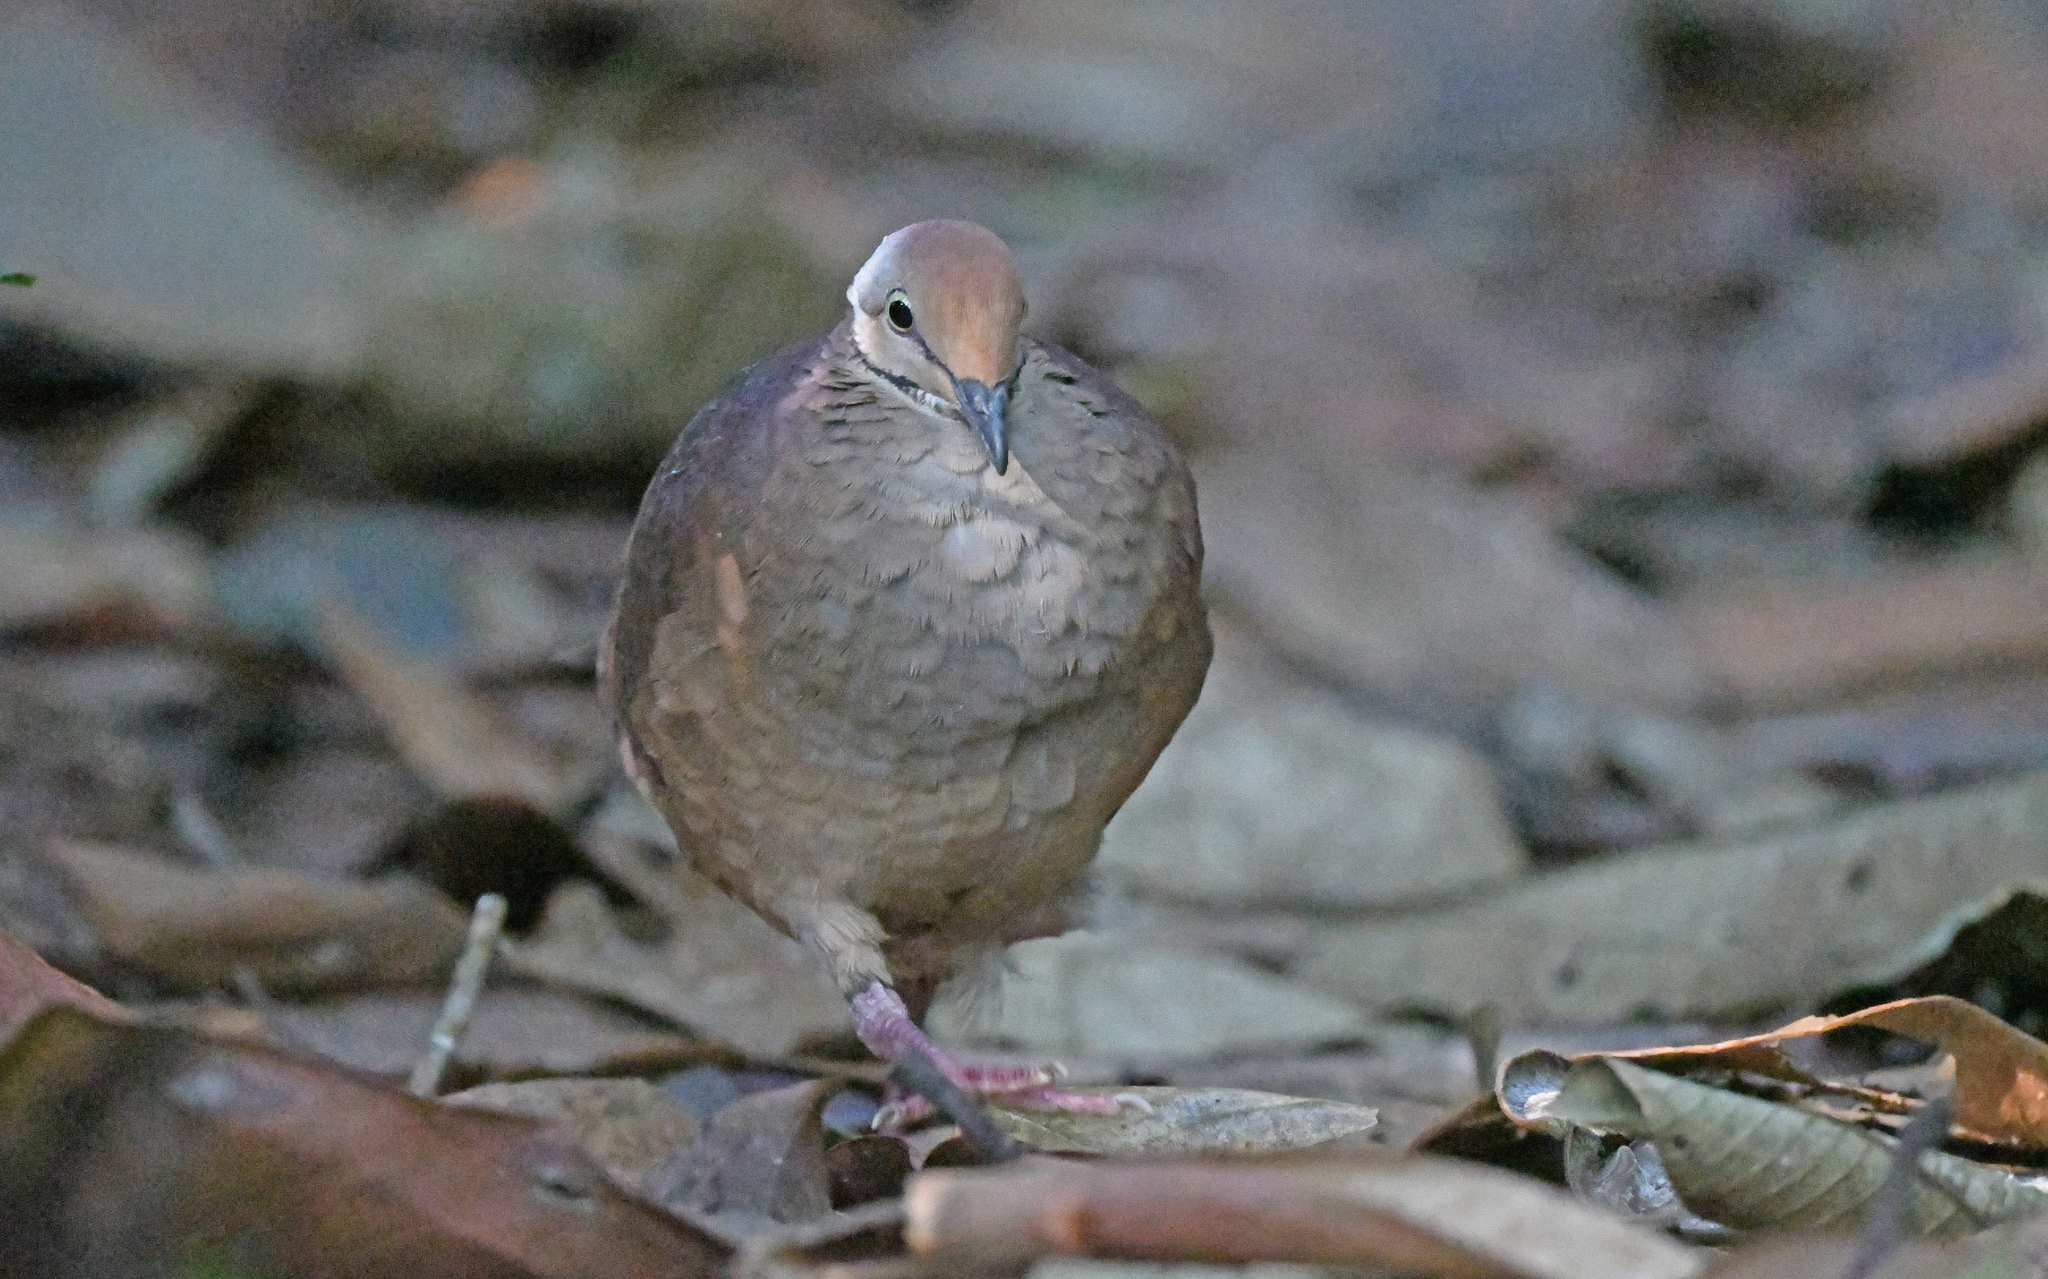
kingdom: Animalia
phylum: Chordata
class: Aves
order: Columbiformes
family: Columbidae
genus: Zentrygon
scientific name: Zentrygon linearis
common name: Lined quail-dove
